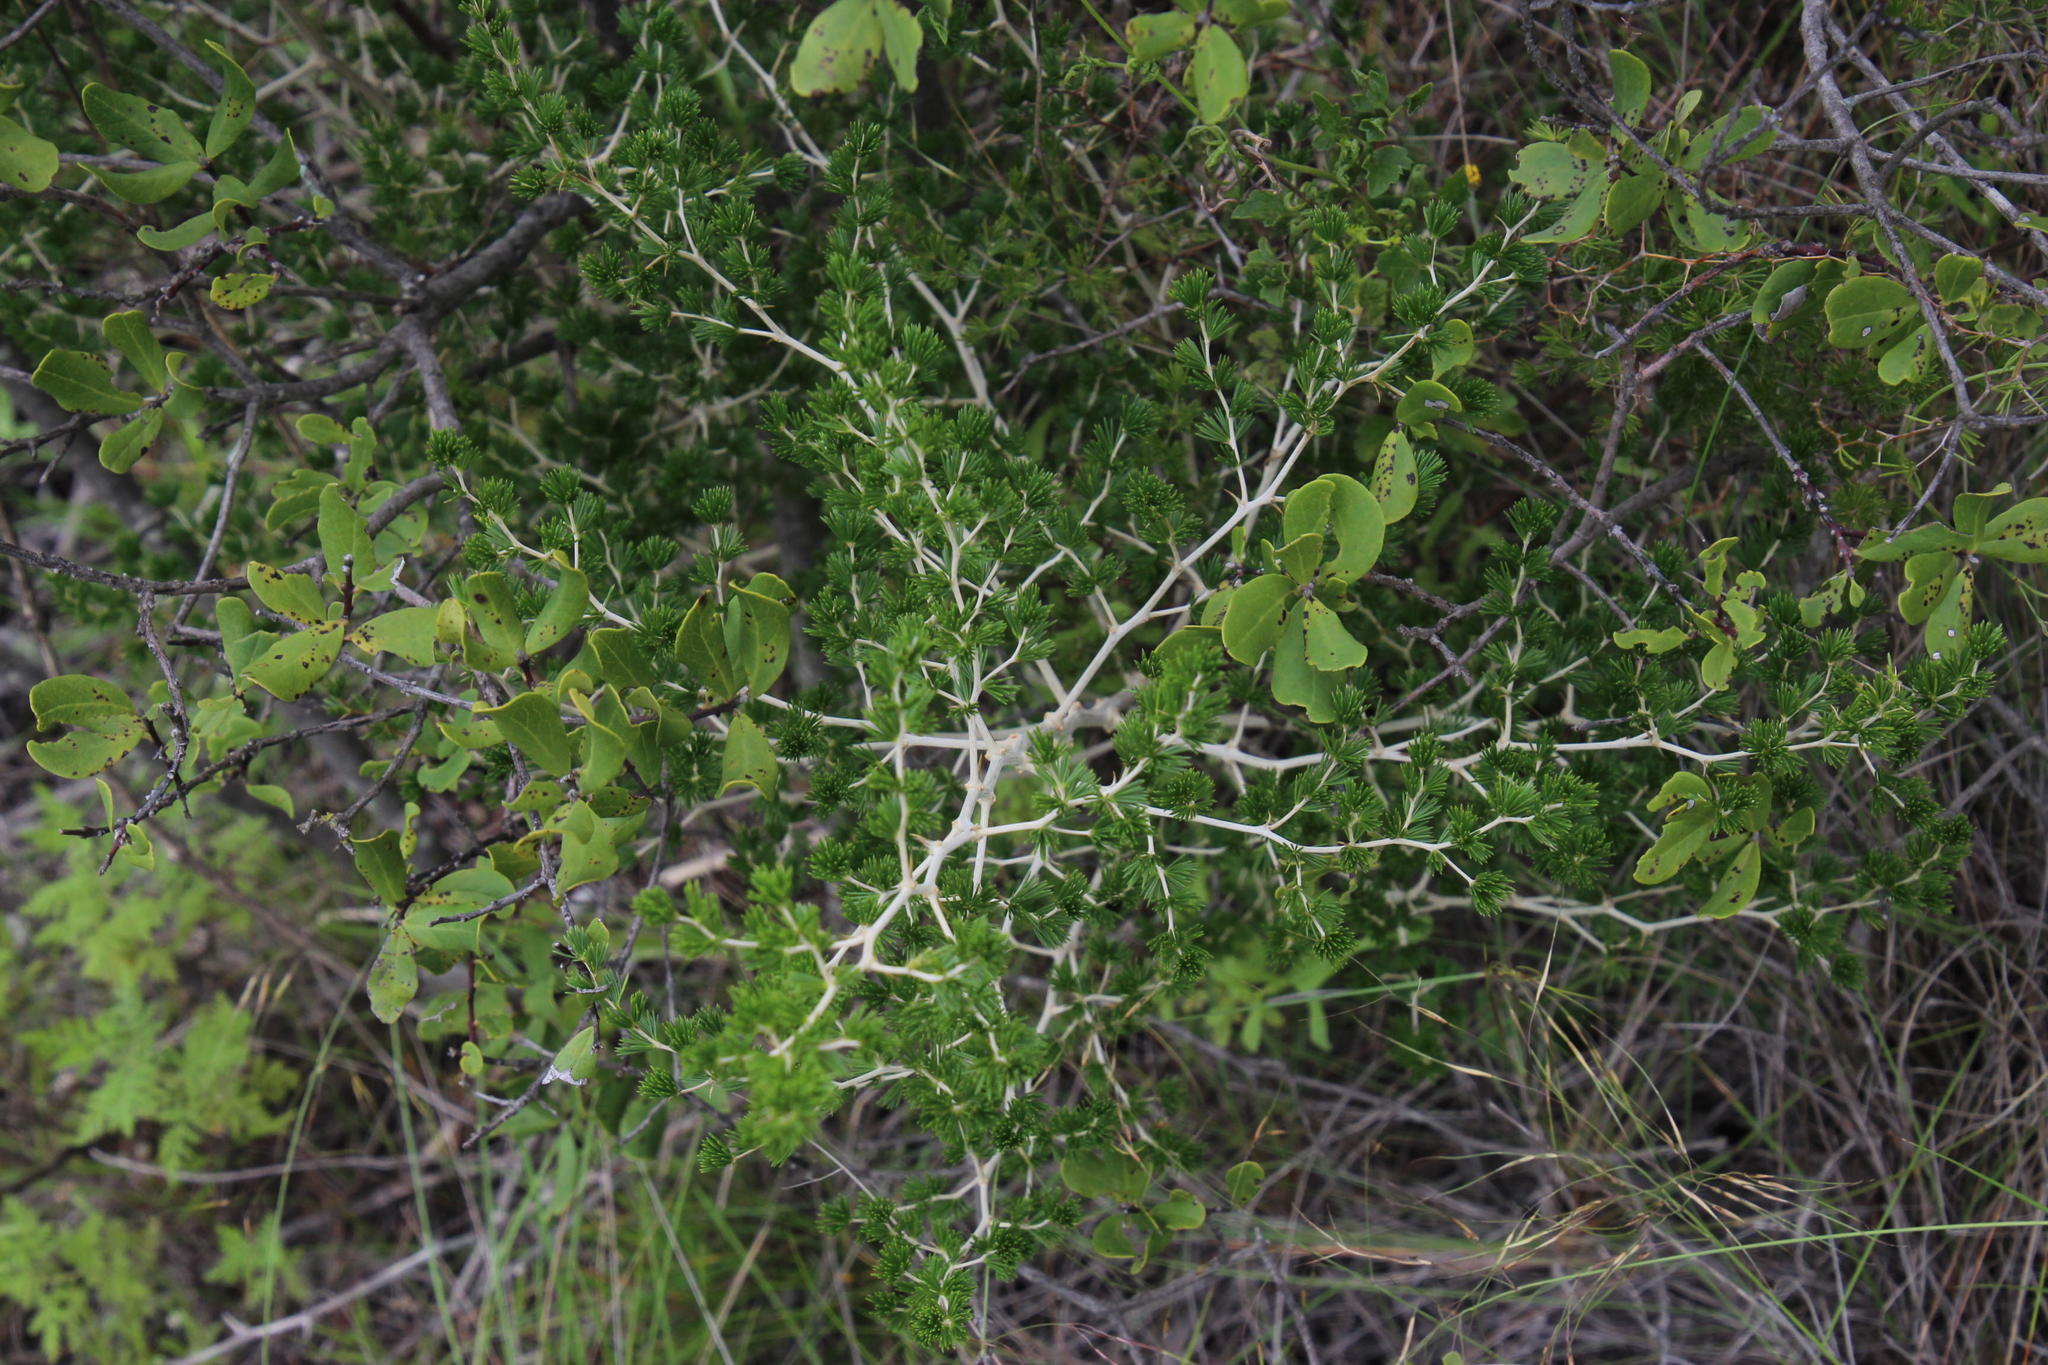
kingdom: Plantae
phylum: Tracheophyta
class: Liliopsida
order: Asparagales
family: Asparagaceae
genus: Asparagus
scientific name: Asparagus laricinus
